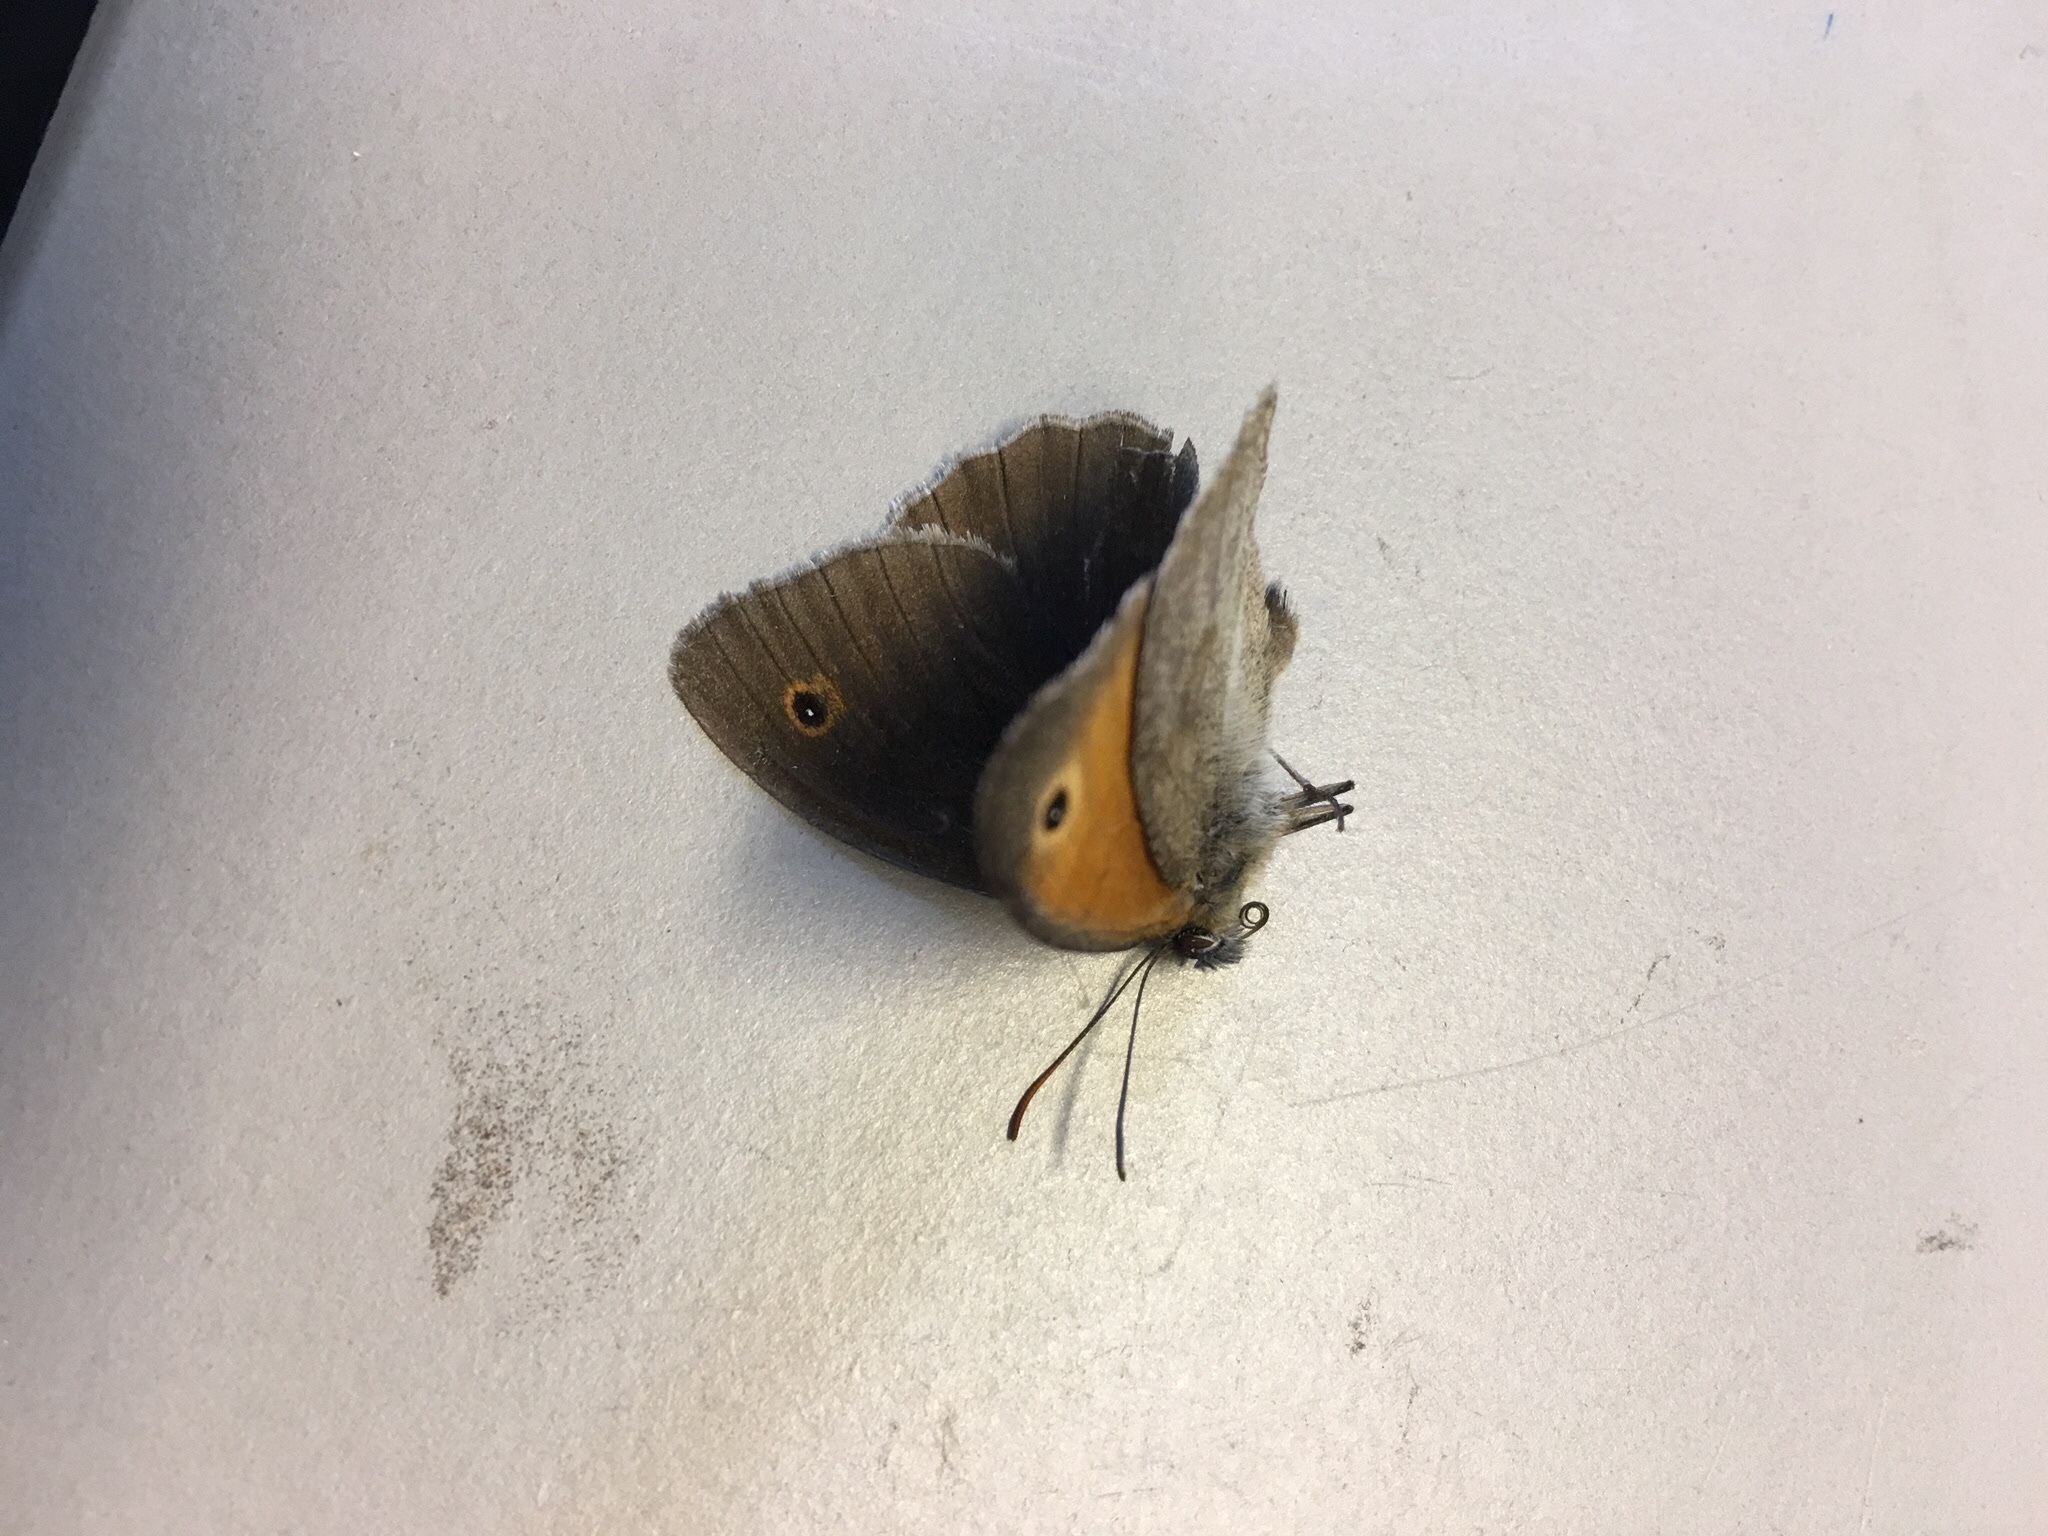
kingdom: Animalia
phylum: Arthropoda
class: Insecta
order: Lepidoptera
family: Nymphalidae
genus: Maniola
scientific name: Maniola jurtina
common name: Meadow brown
